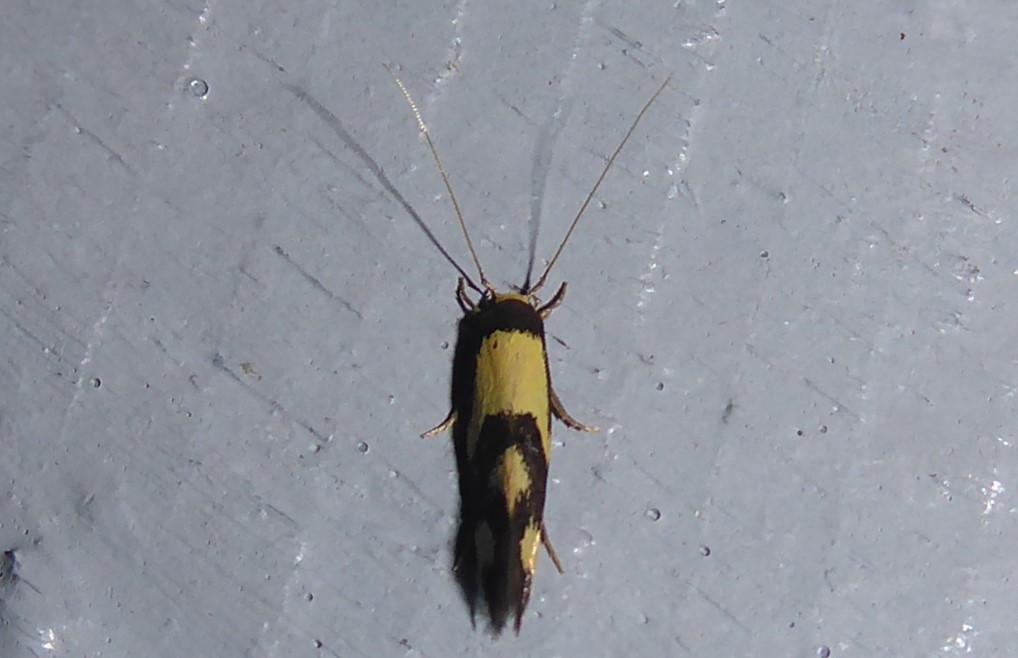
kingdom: Animalia
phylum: Arthropoda
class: Insecta
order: Lepidoptera
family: Tineidae
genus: Opogona
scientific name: Opogona comptella
